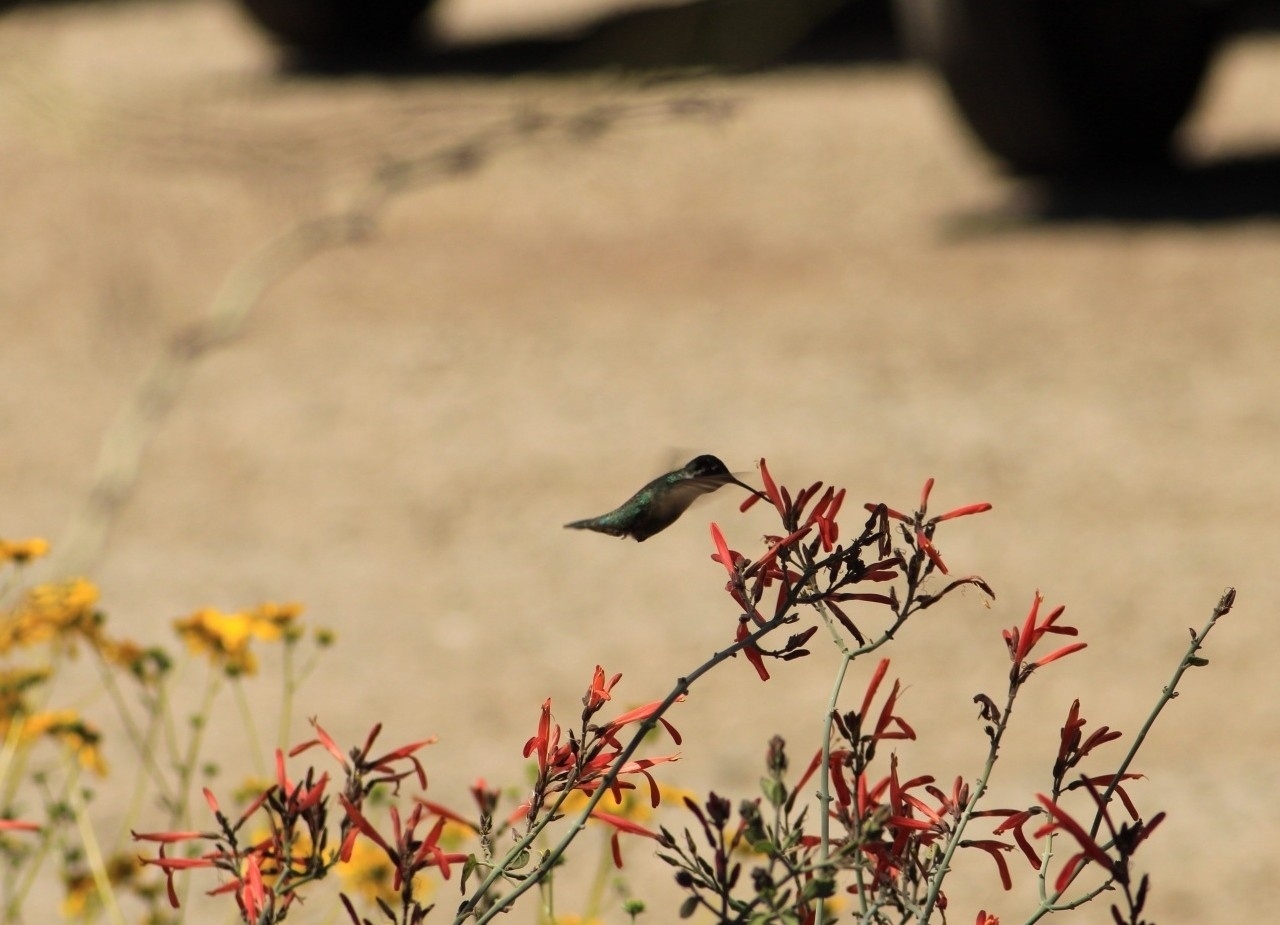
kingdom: Animalia
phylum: Chordata
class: Aves
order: Apodiformes
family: Trochilidae
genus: Calypte
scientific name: Calypte costae
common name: Costa's hummingbird
